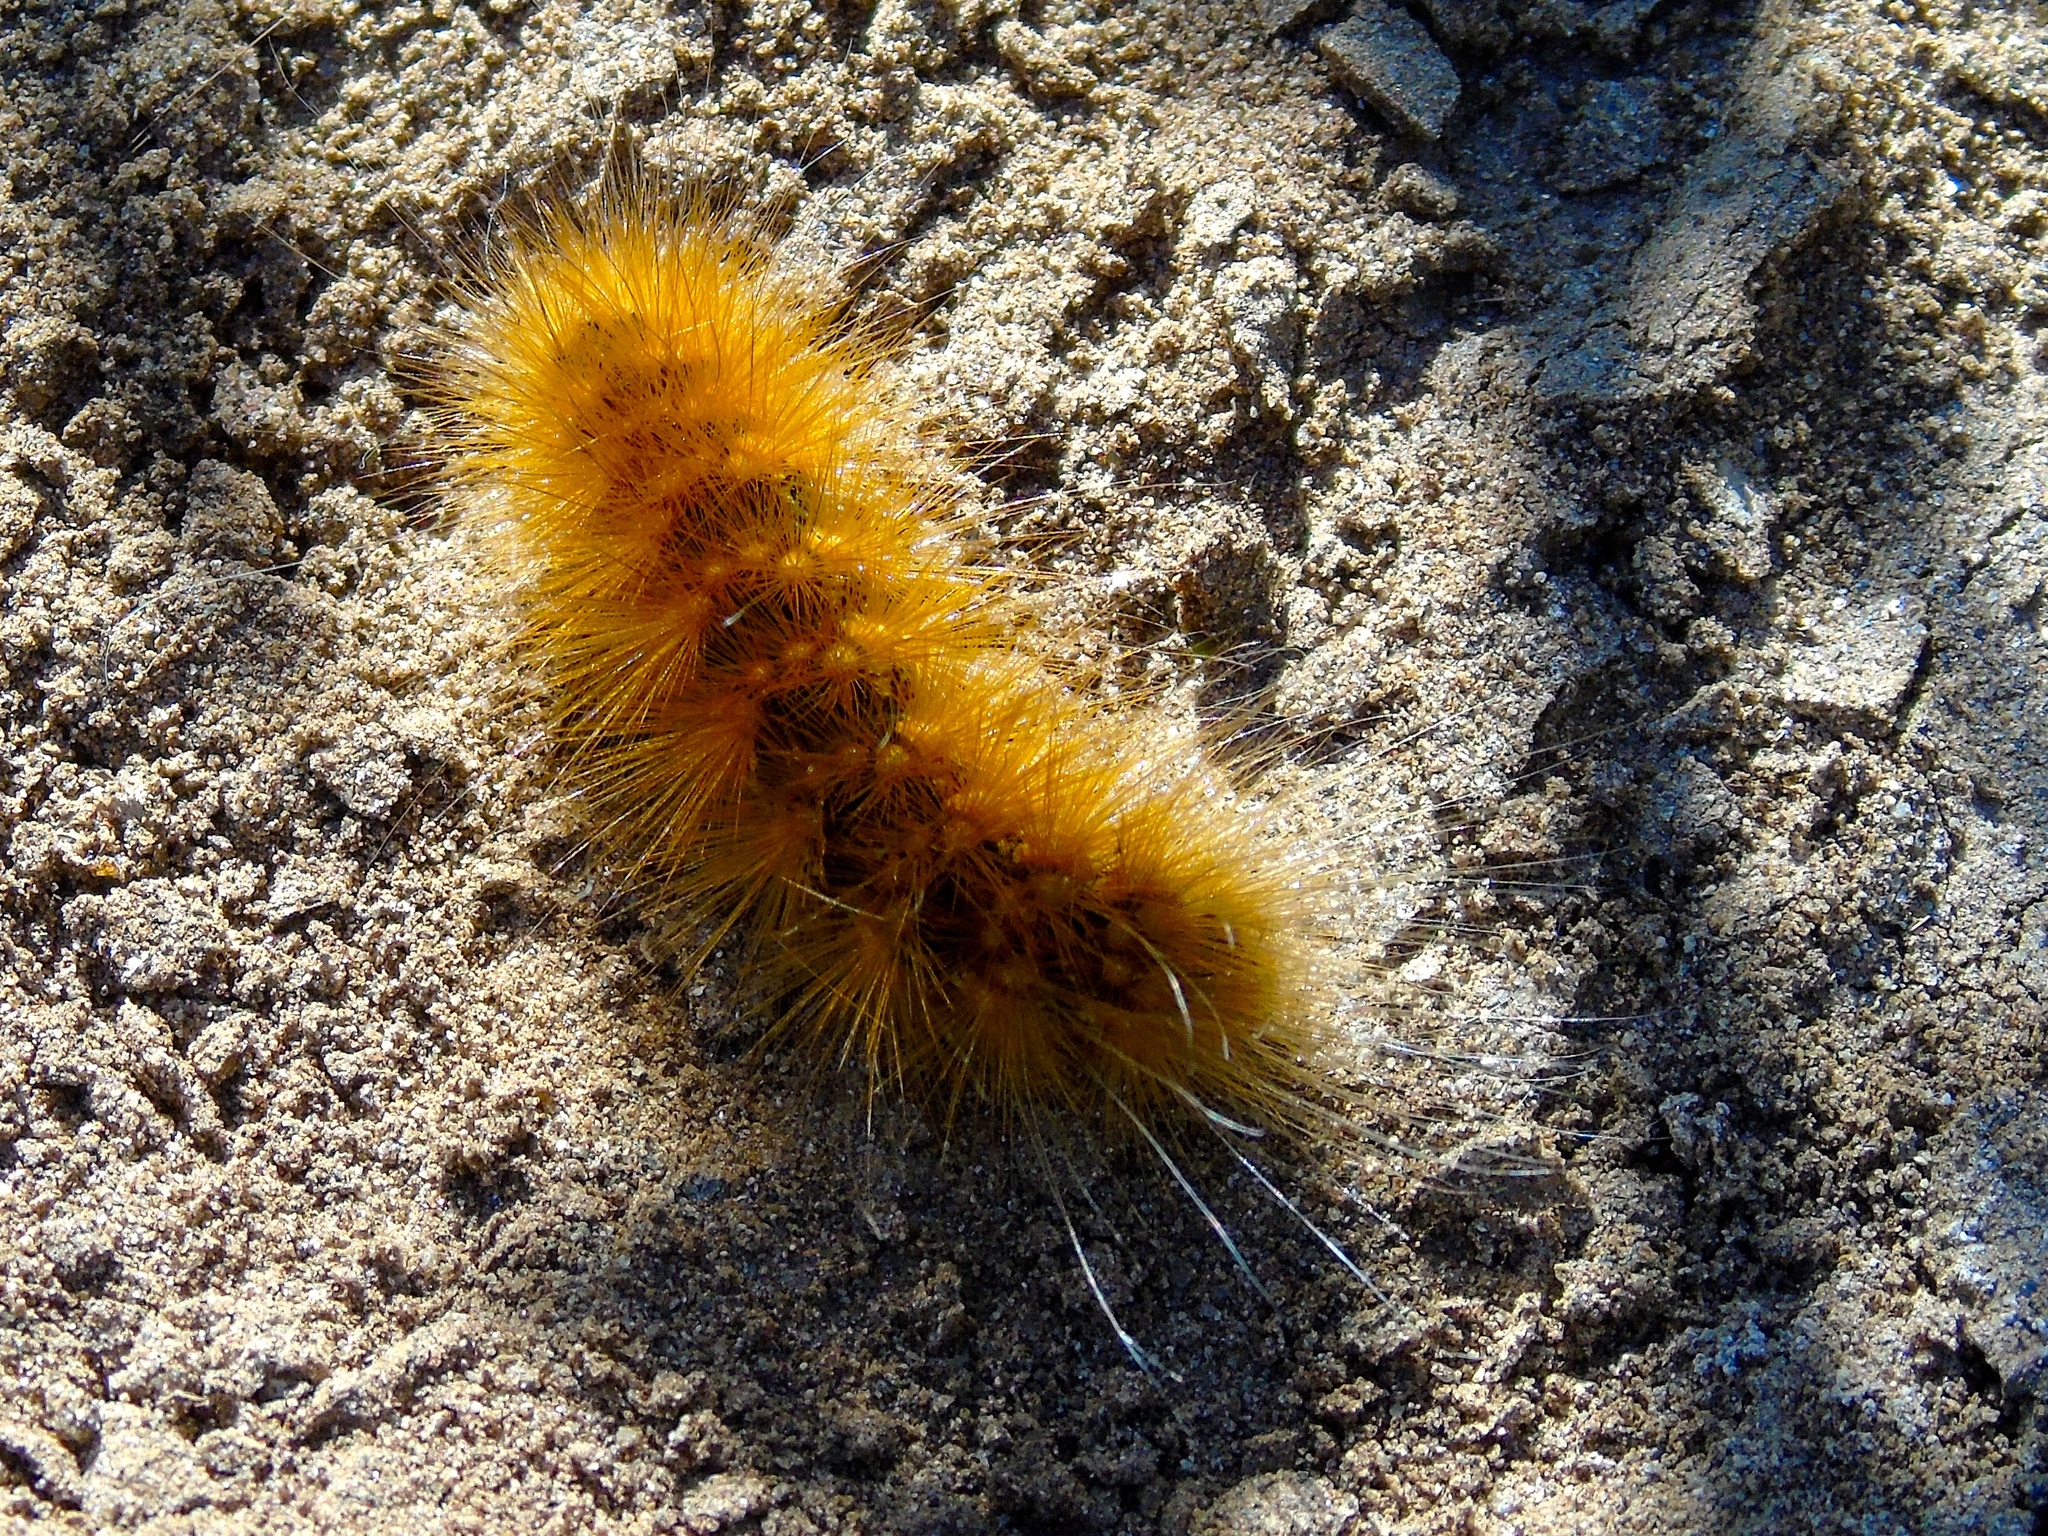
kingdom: Animalia
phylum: Arthropoda
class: Insecta
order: Lepidoptera
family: Erebidae
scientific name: Erebidae
